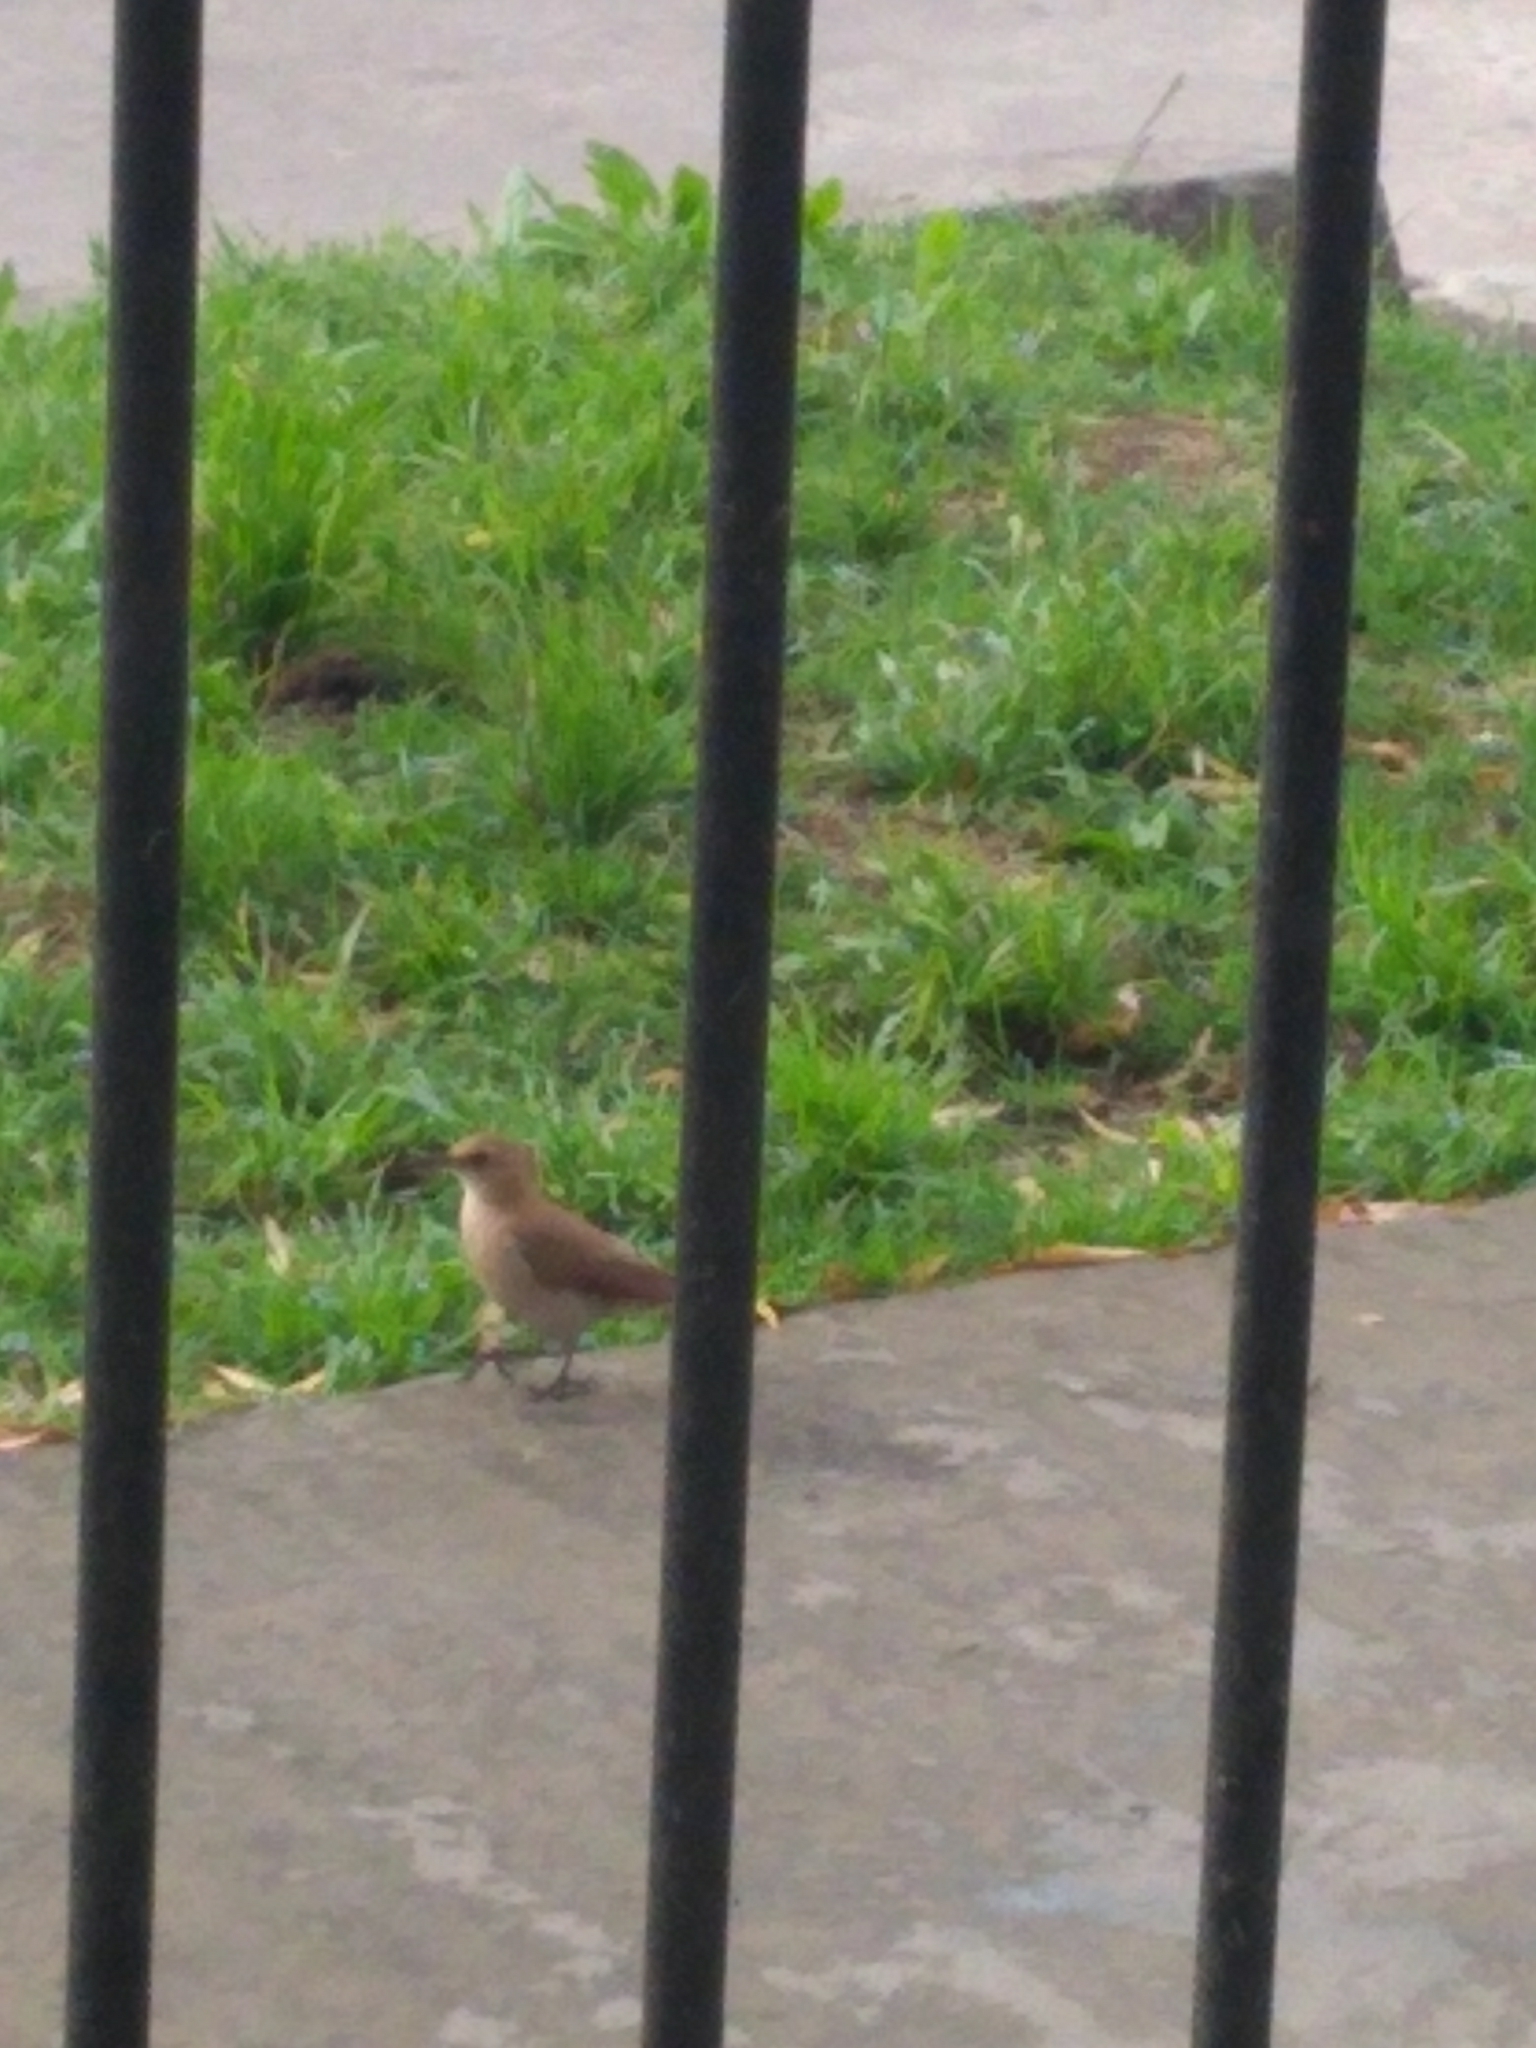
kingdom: Animalia
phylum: Chordata
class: Aves
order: Passeriformes
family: Furnariidae
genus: Furnarius
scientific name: Furnarius rufus
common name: Rufous hornero
